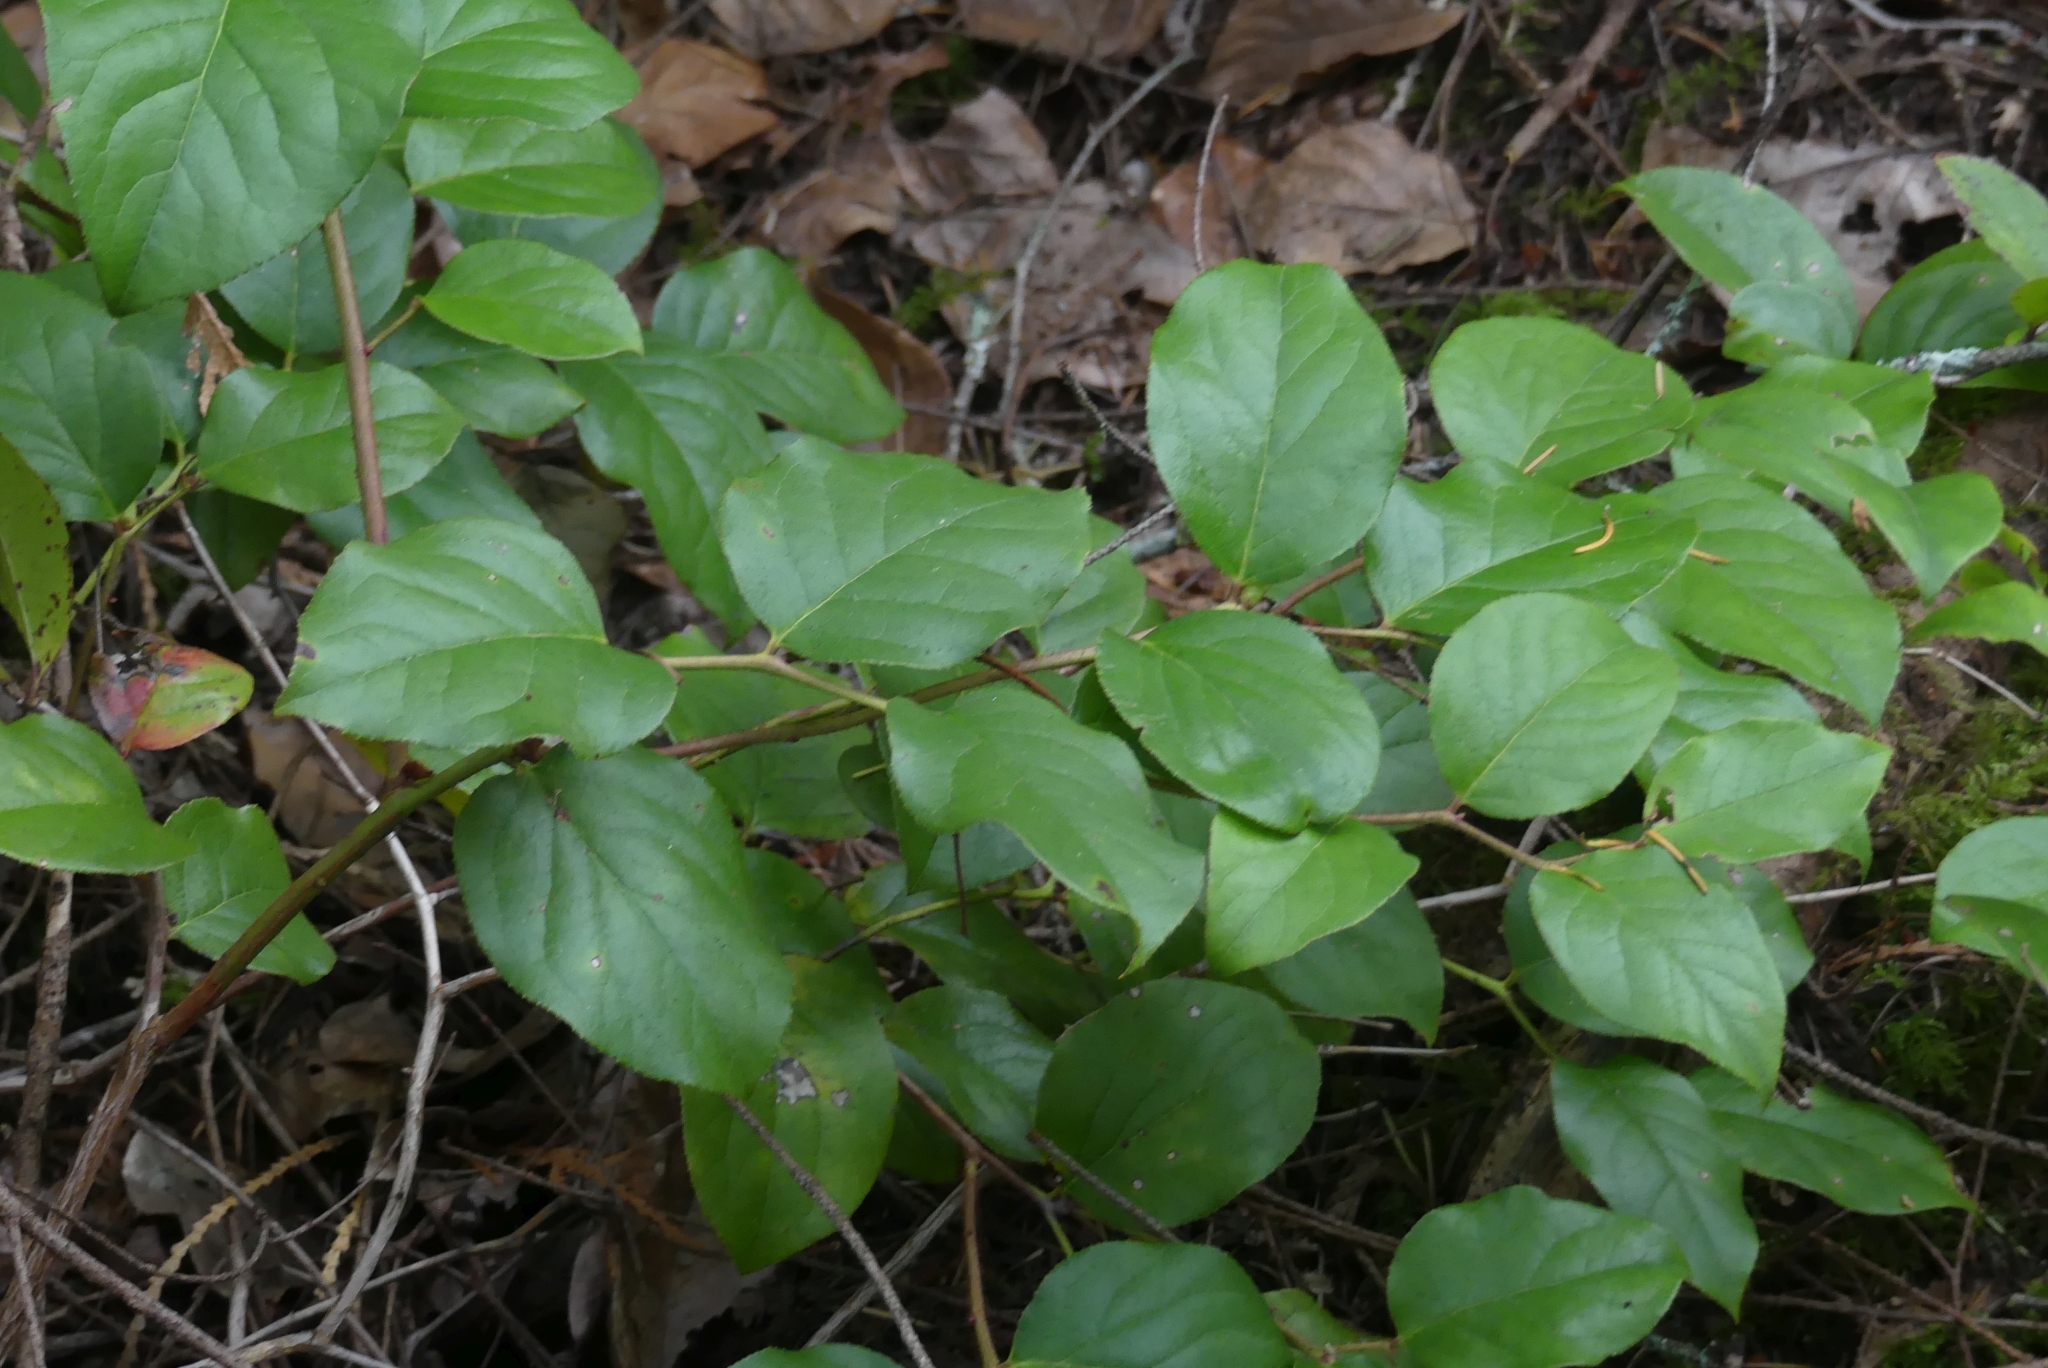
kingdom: Plantae
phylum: Tracheophyta
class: Magnoliopsida
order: Ericales
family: Ericaceae
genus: Gaultheria
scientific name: Gaultheria shallon
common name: Shallon
